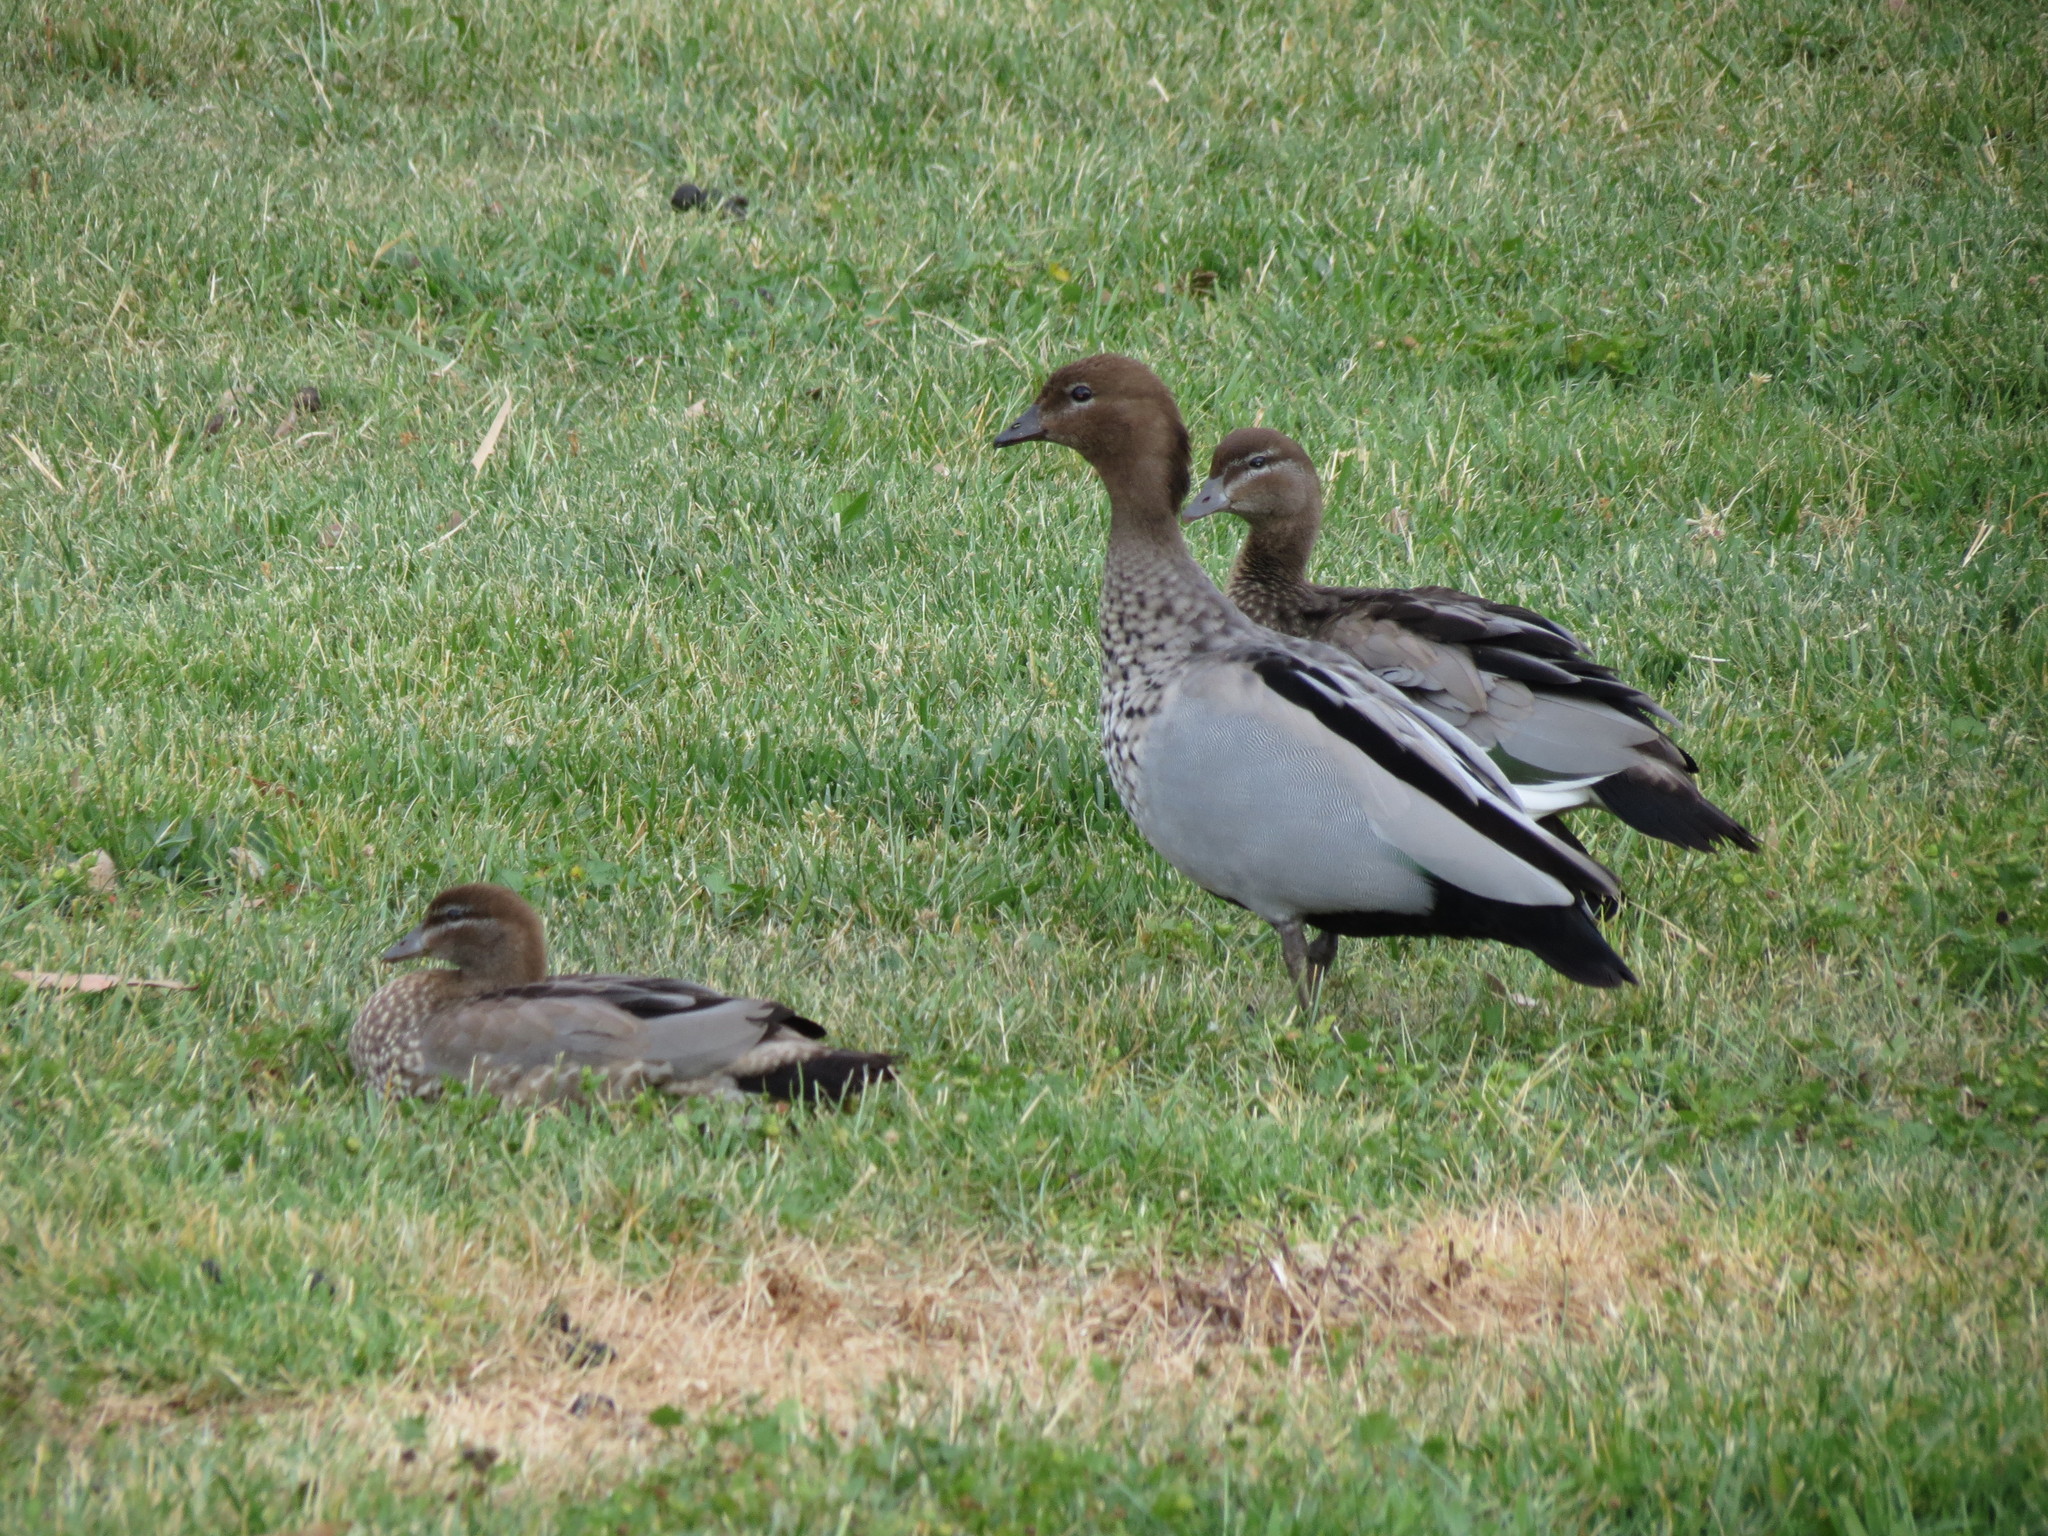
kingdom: Animalia
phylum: Chordata
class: Aves
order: Anseriformes
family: Anatidae
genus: Chenonetta
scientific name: Chenonetta jubata
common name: Maned duck
